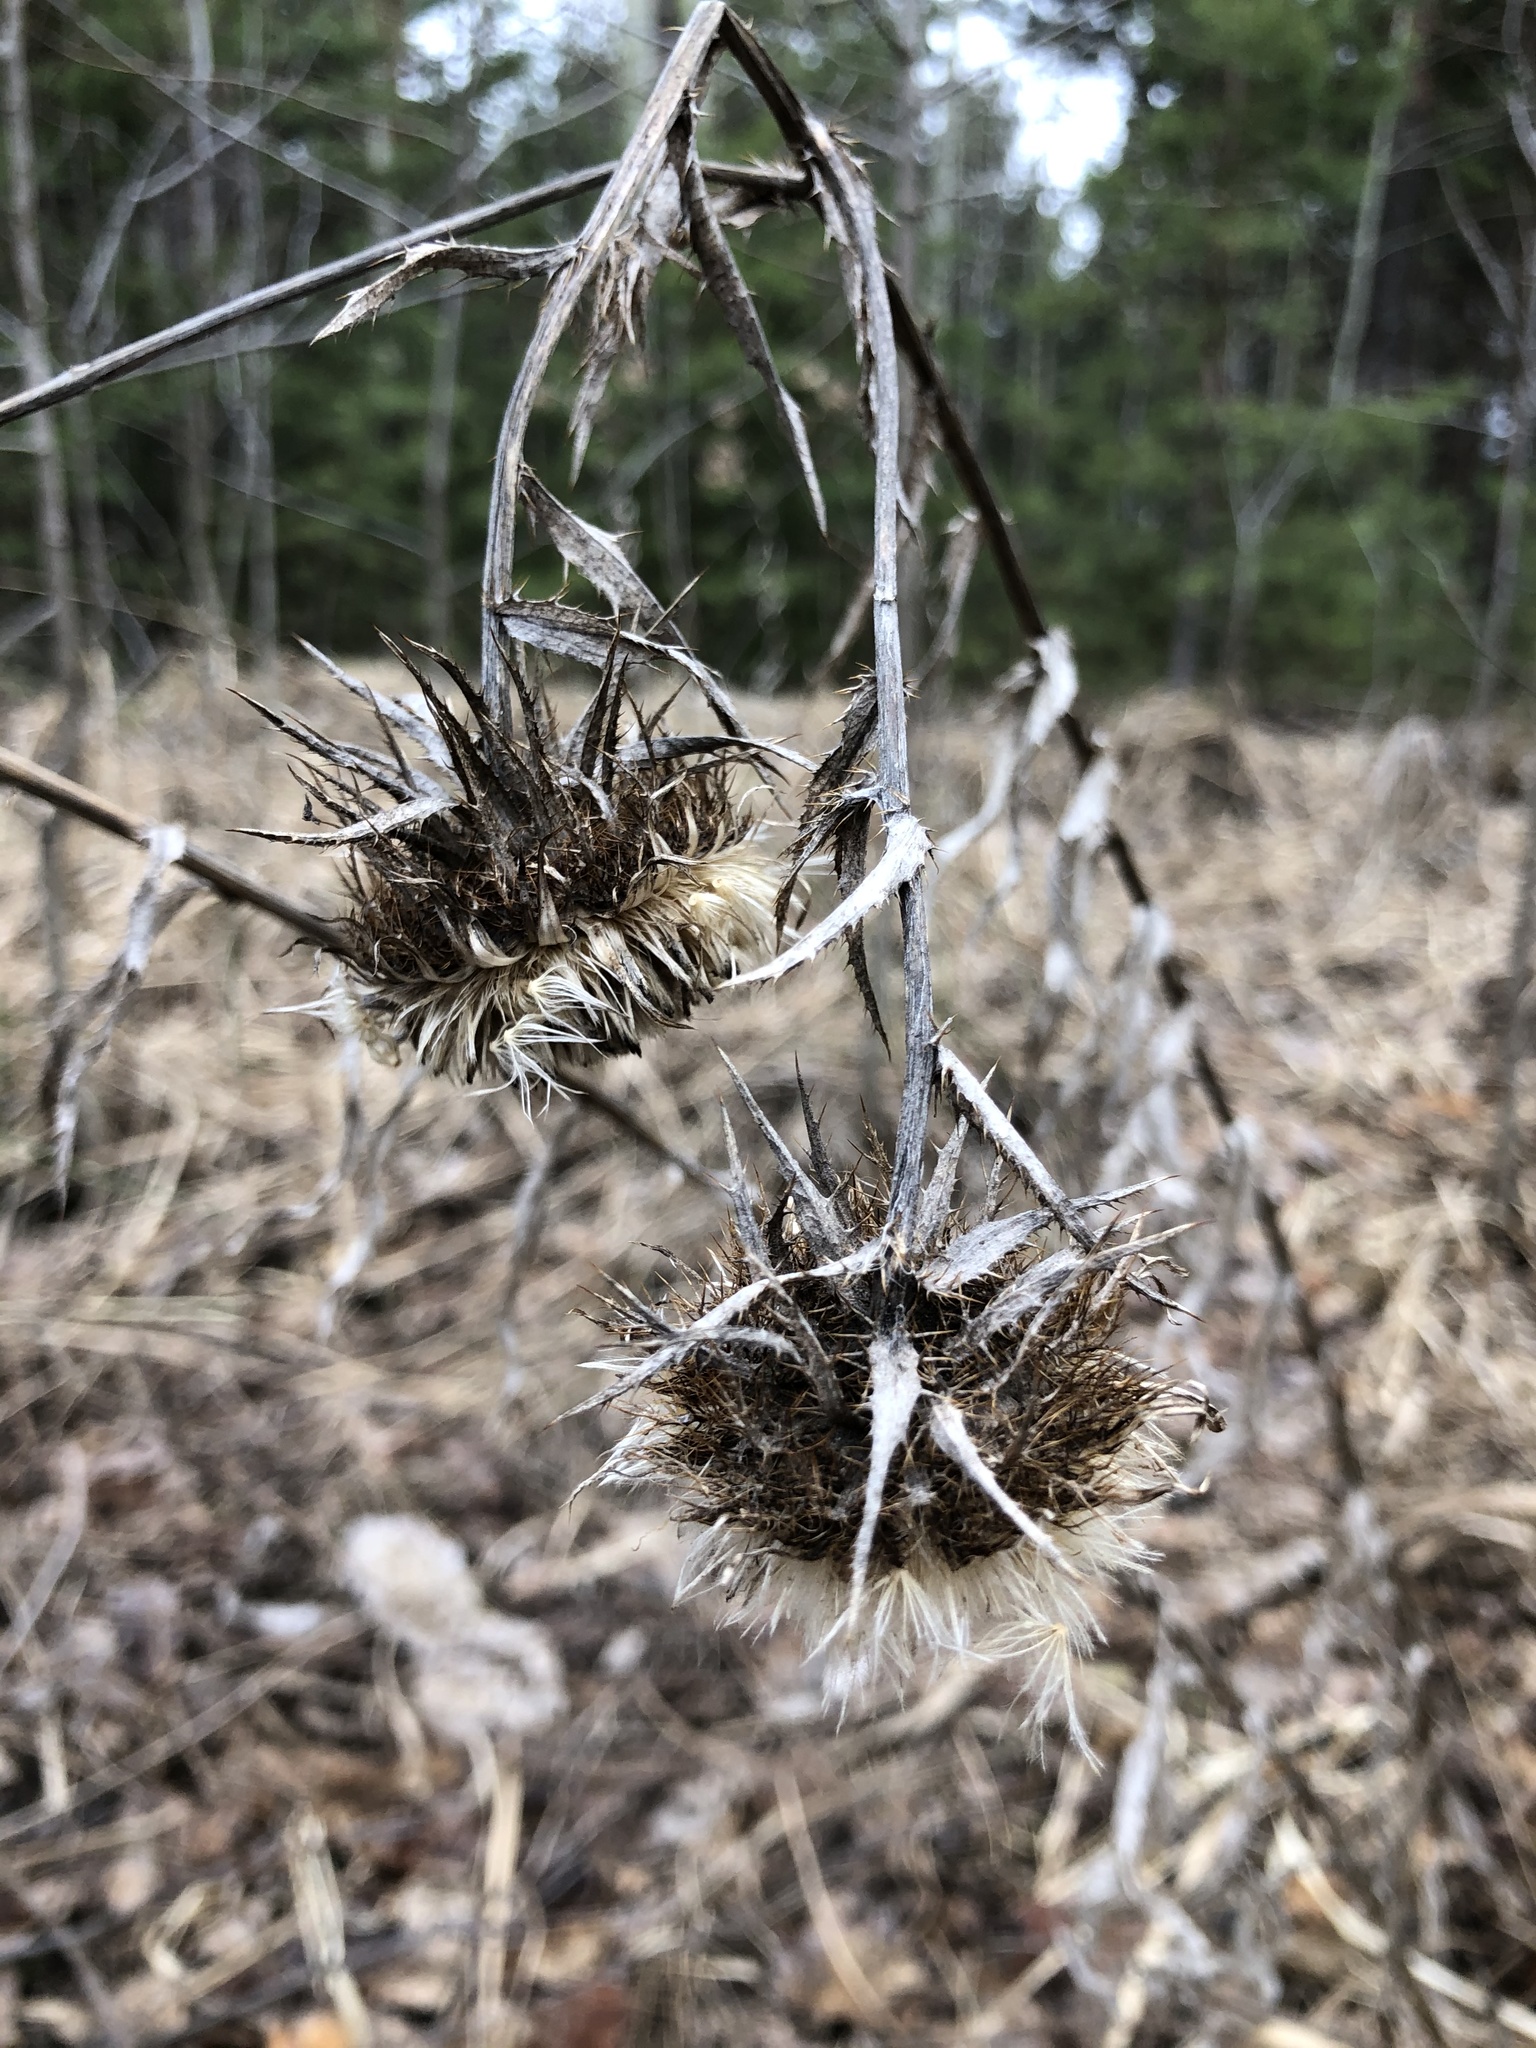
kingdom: Plantae
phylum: Tracheophyta
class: Magnoliopsida
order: Asterales
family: Asteraceae
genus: Carlina
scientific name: Carlina biebersteinii
